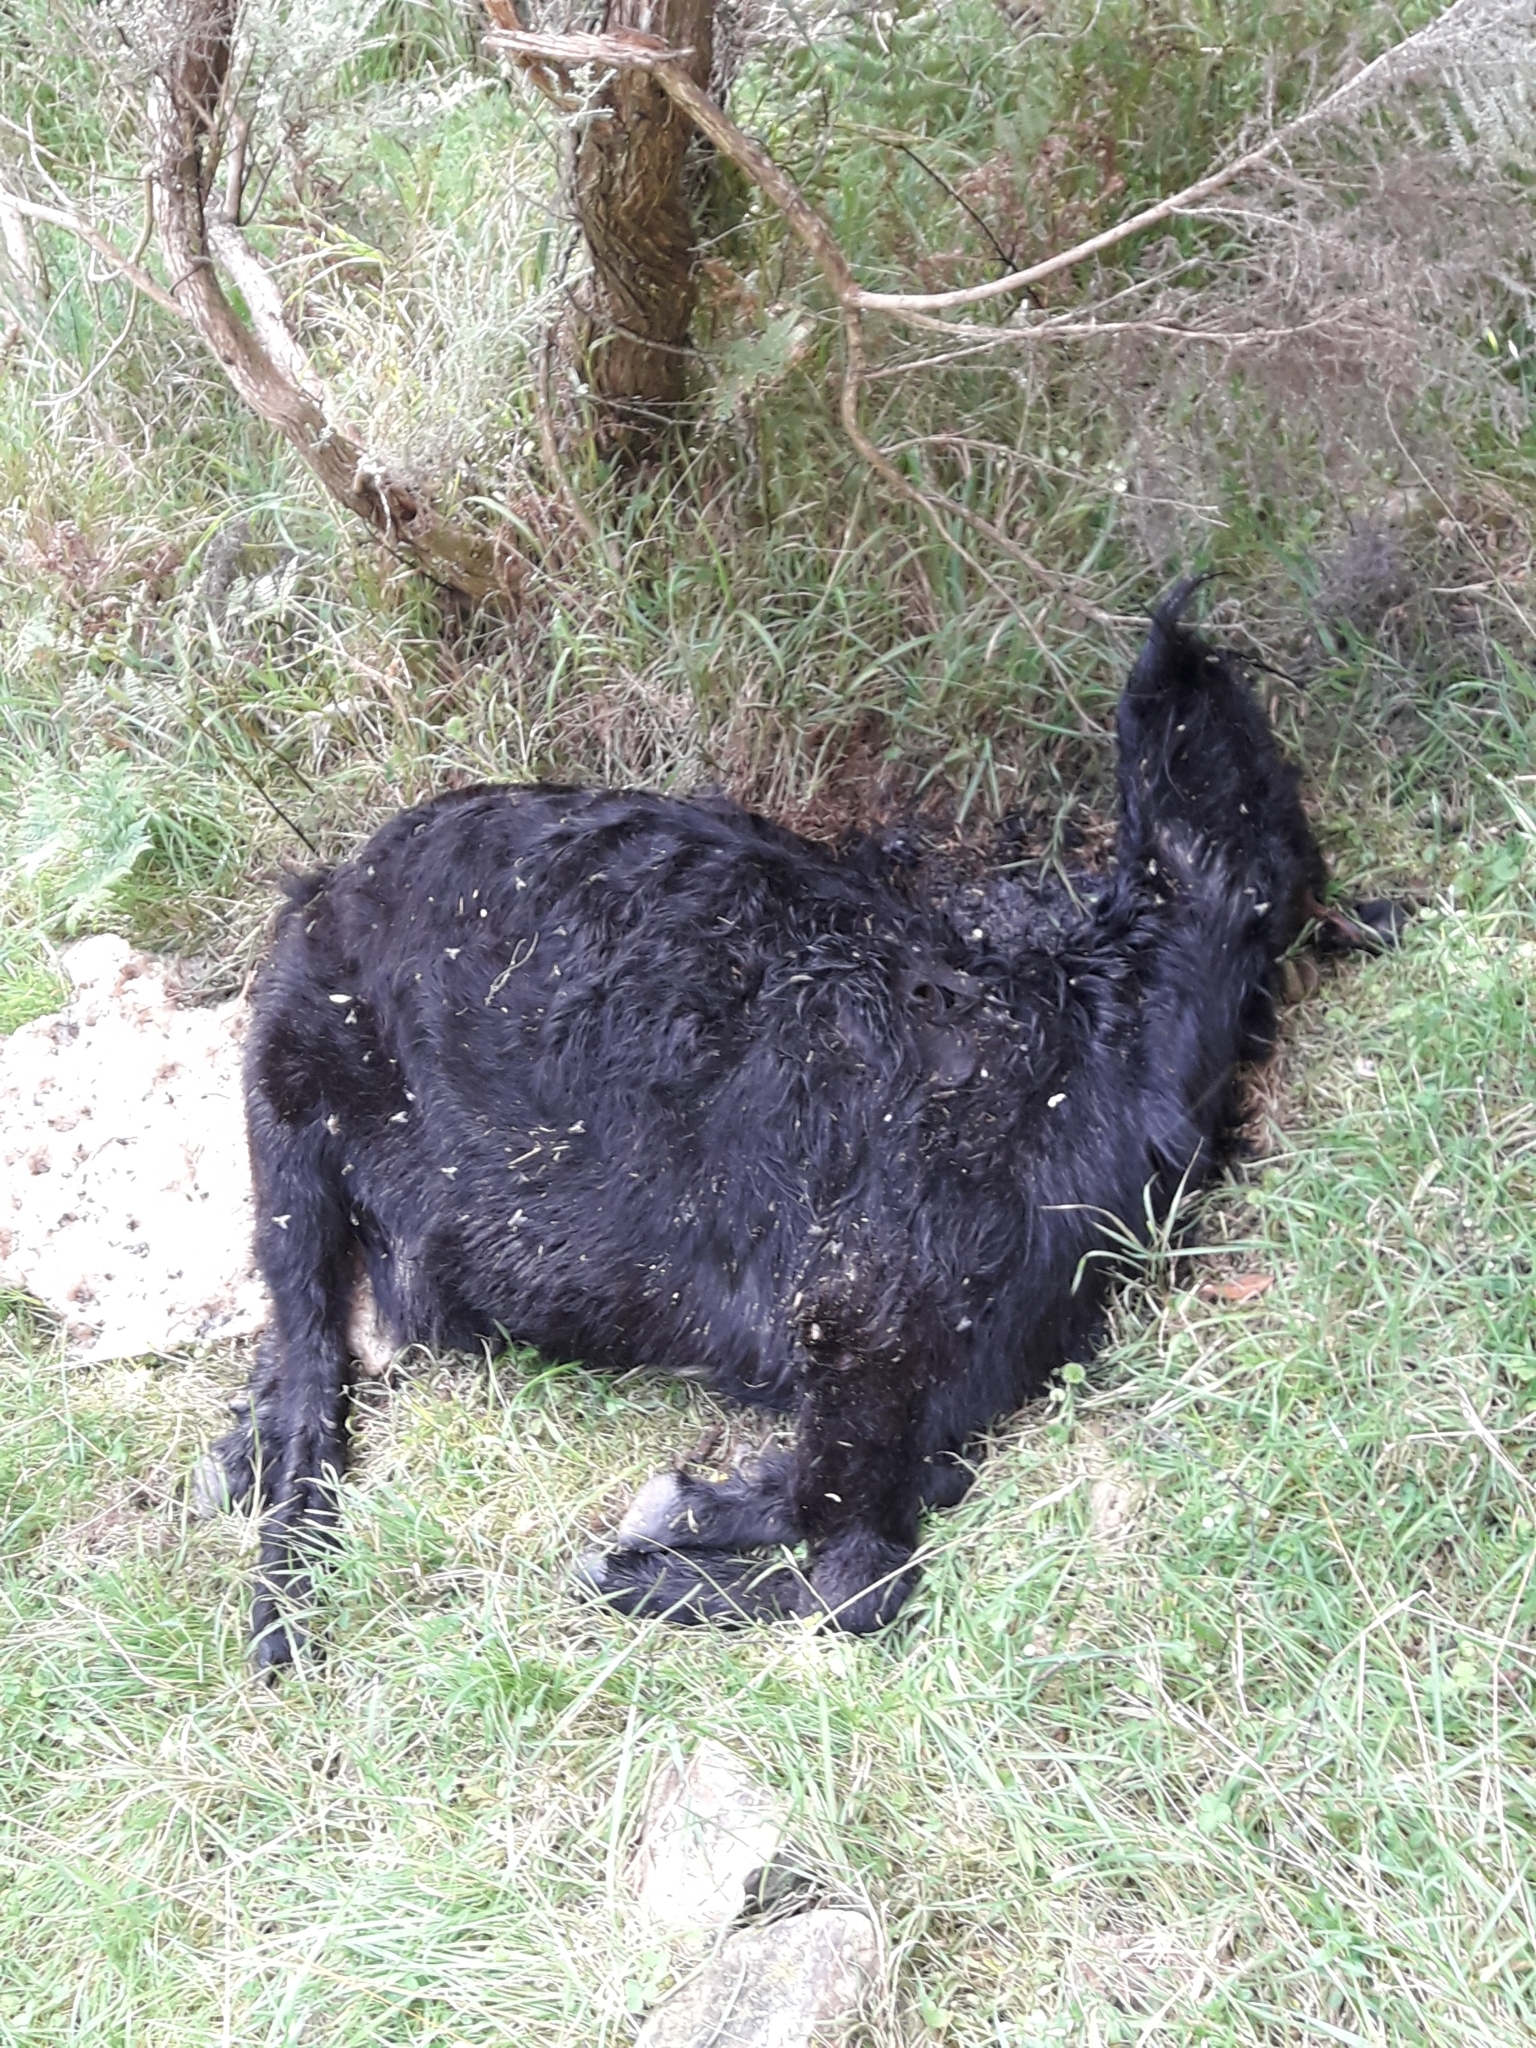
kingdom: Animalia
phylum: Chordata
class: Mammalia
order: Artiodactyla
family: Bovidae
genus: Capra
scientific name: Capra hircus
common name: Domestic goat
